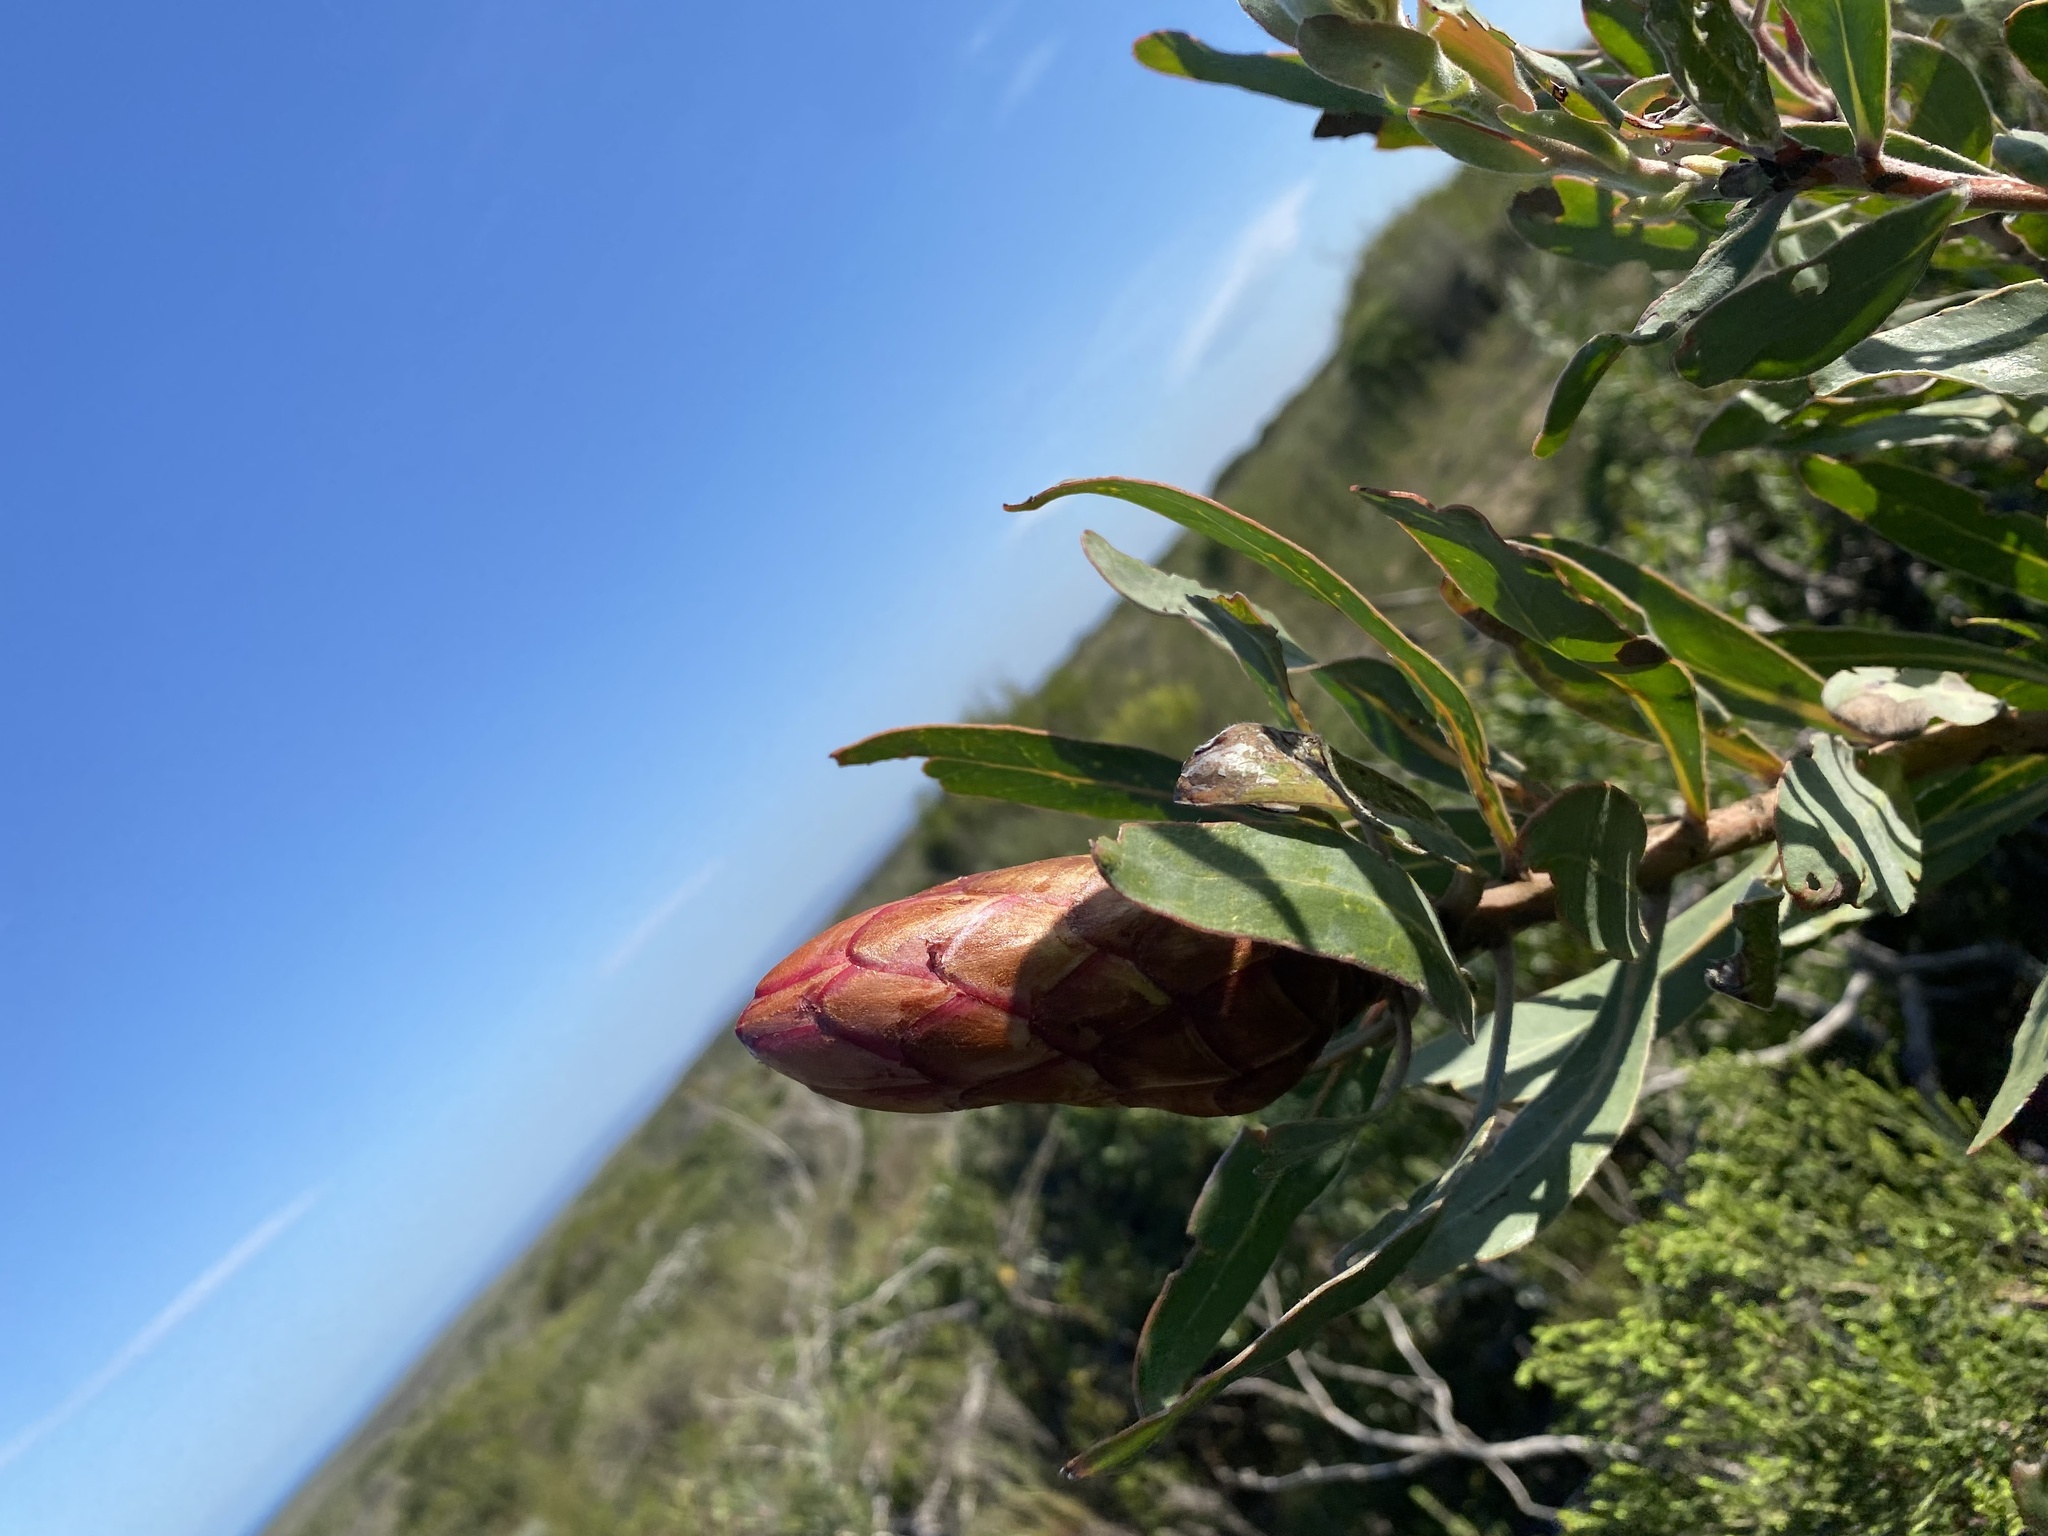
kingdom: Plantae
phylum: Tracheophyta
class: Magnoliopsida
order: Proteales
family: Proteaceae
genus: Protea
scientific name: Protea susannae
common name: Foetid-leaf sugarbush
